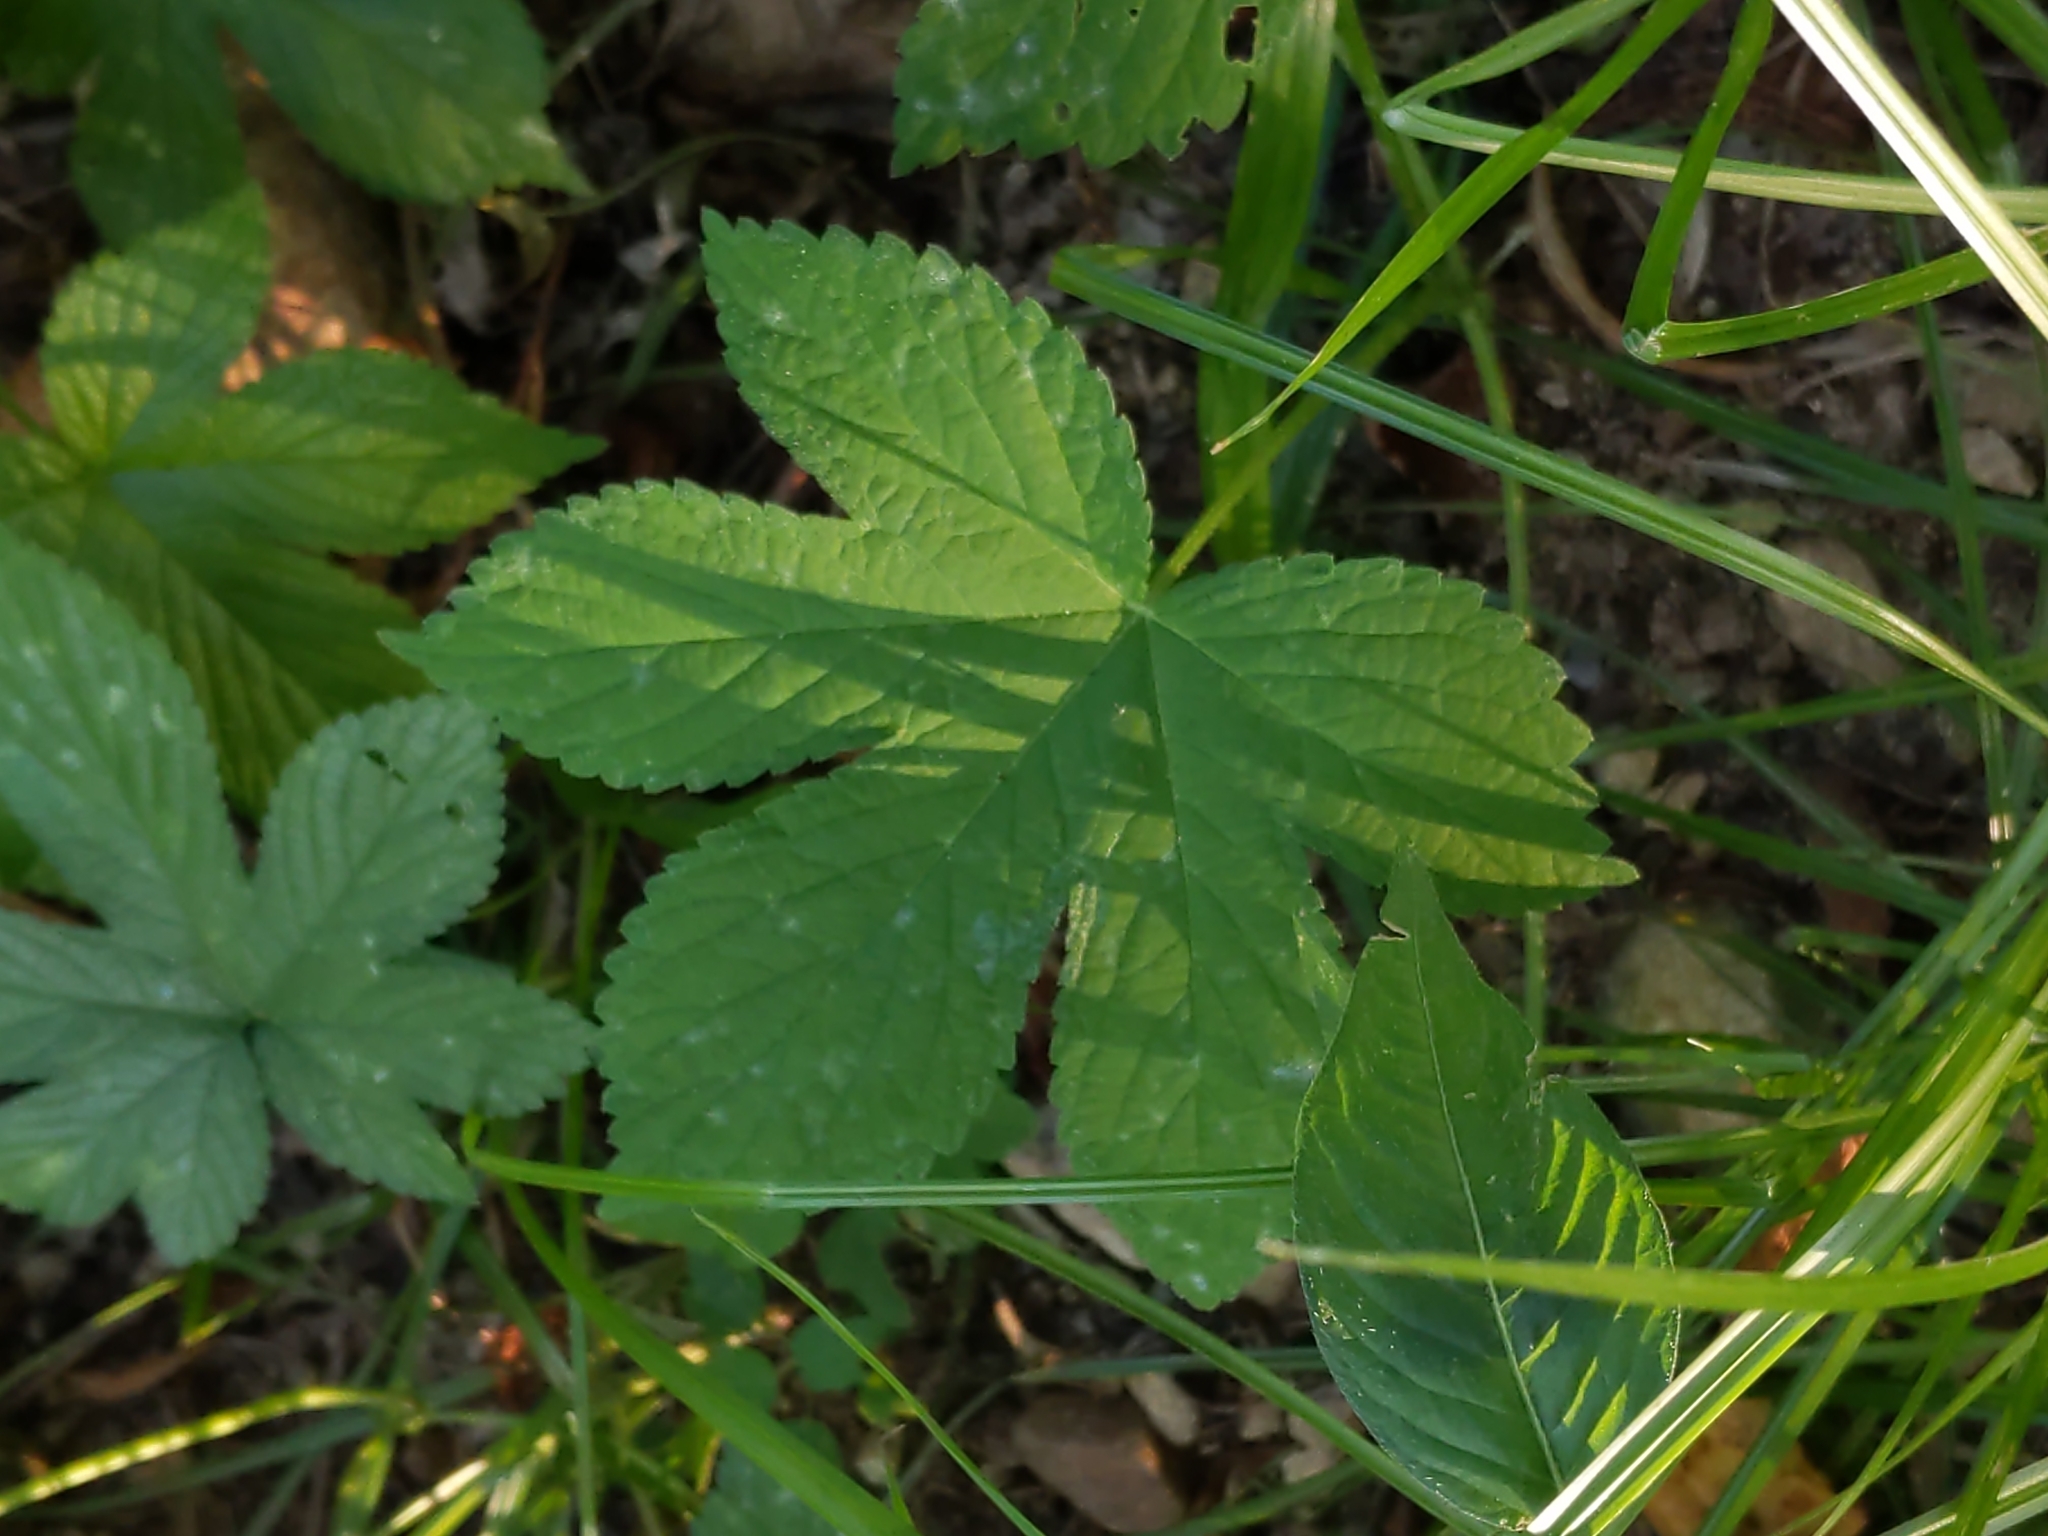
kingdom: Plantae
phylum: Tracheophyta
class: Magnoliopsida
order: Rosales
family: Cannabaceae
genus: Humulus
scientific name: Humulus scandens
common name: Japanese hop
